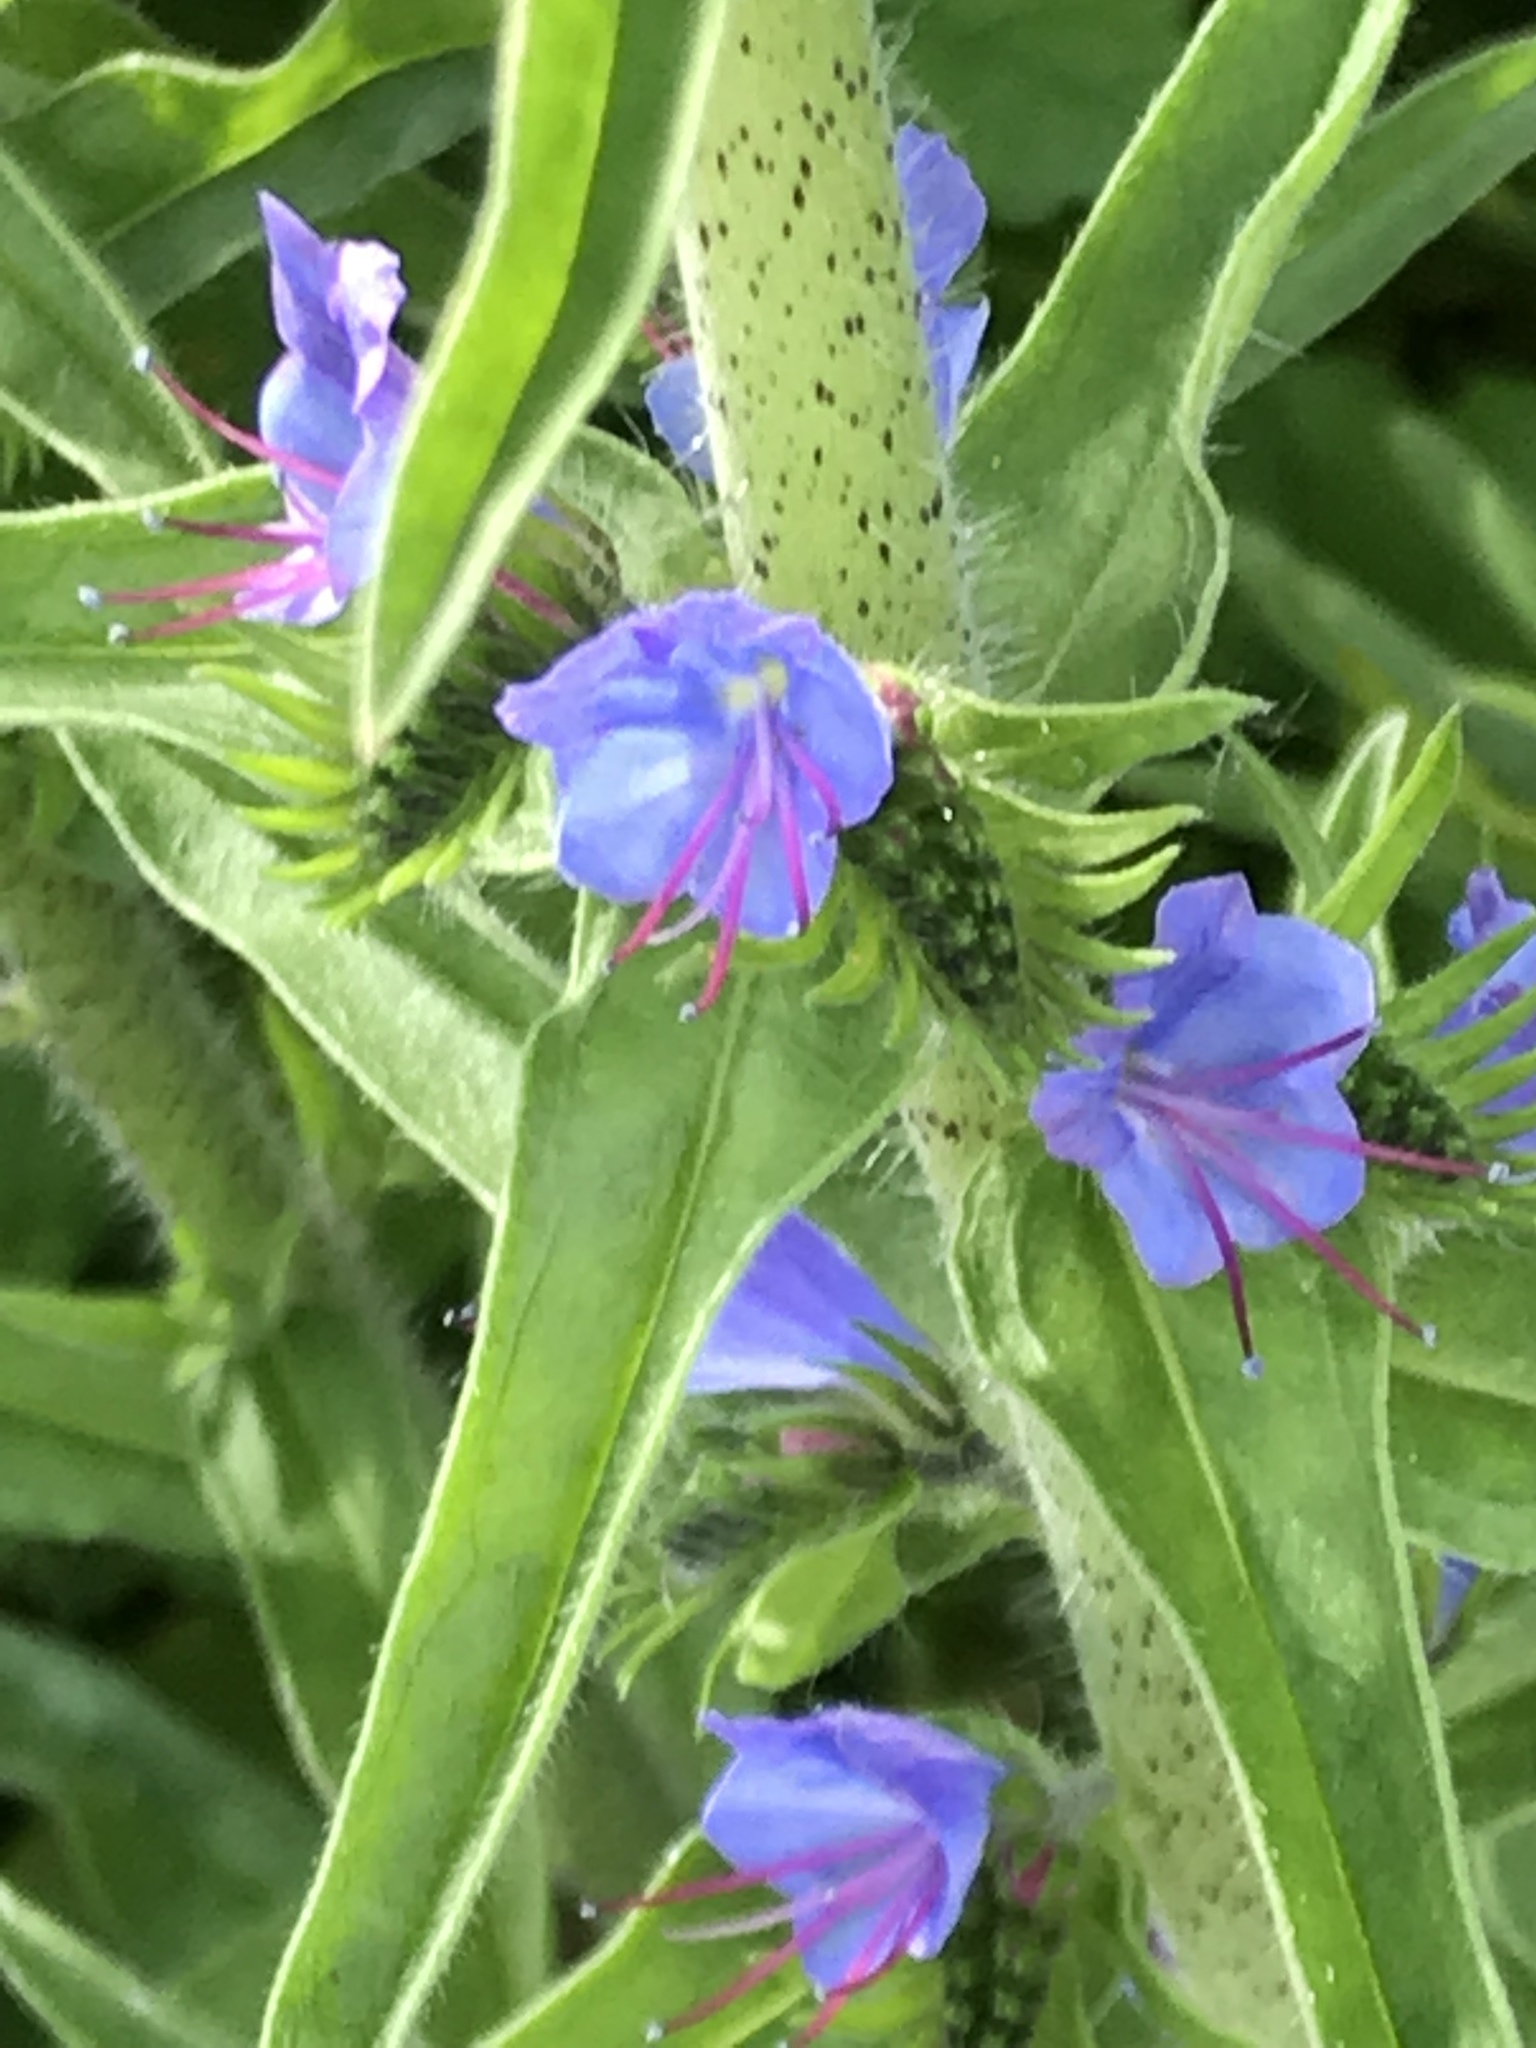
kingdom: Plantae
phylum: Tracheophyta
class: Magnoliopsida
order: Boraginales
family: Boraginaceae
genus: Echium
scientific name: Echium vulgare
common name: Common viper's bugloss
